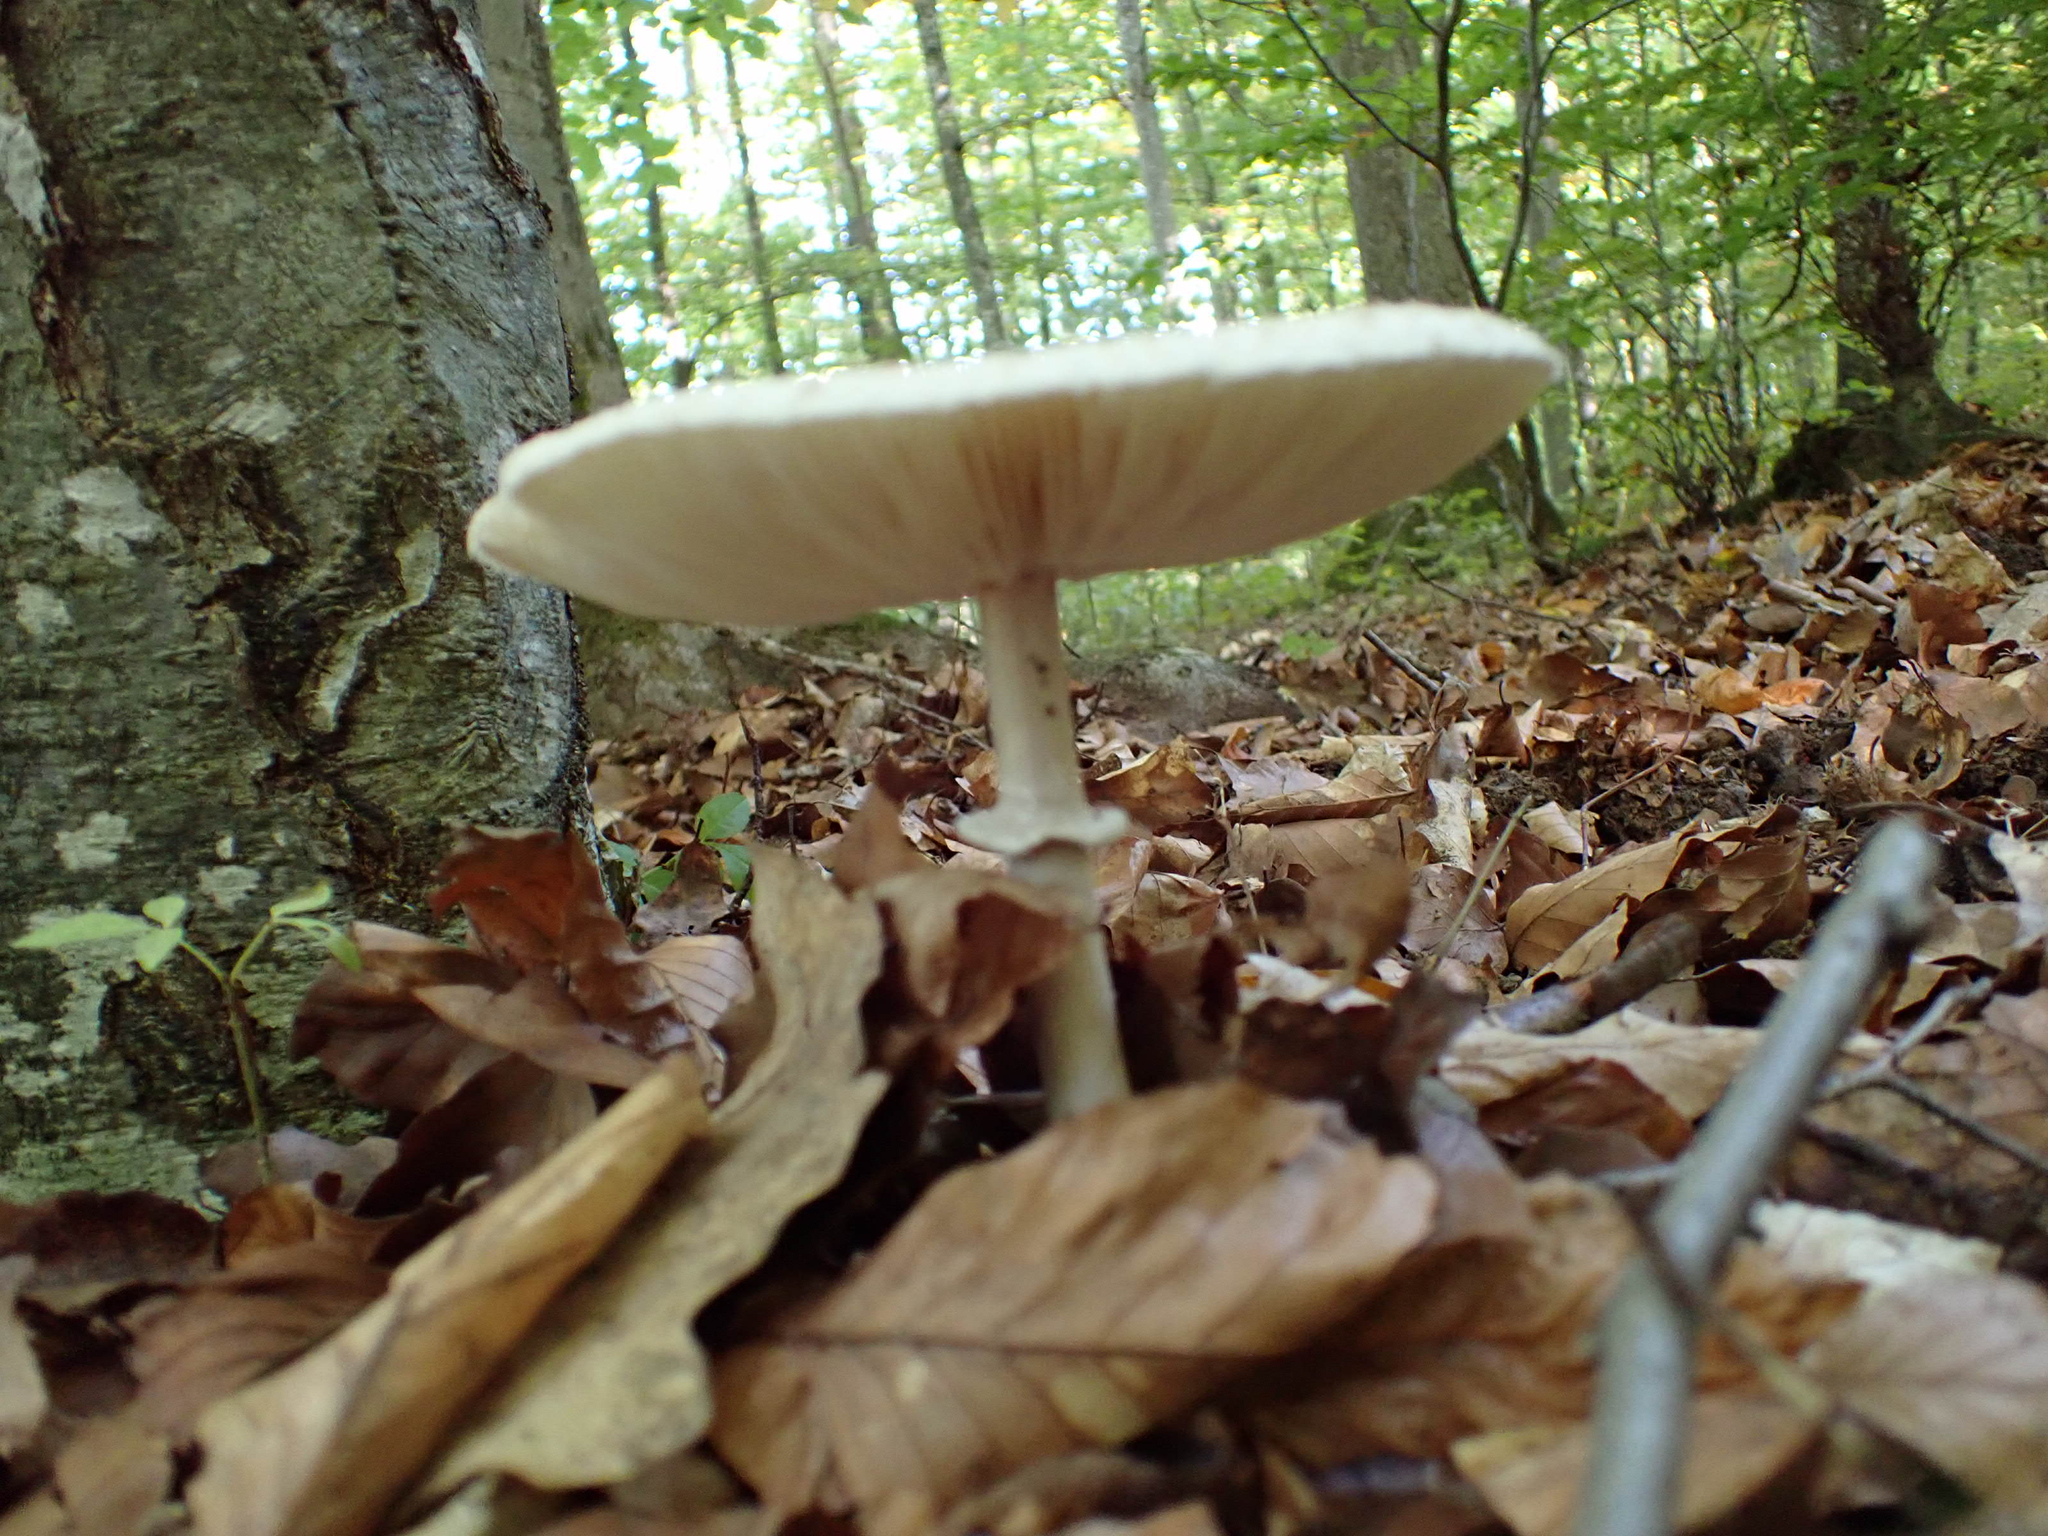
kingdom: Fungi
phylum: Basidiomycota
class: Agaricomycetes
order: Agaricales
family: Agaricaceae
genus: Macrolepiota
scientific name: Macrolepiota mastoidea
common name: Slender parasol
